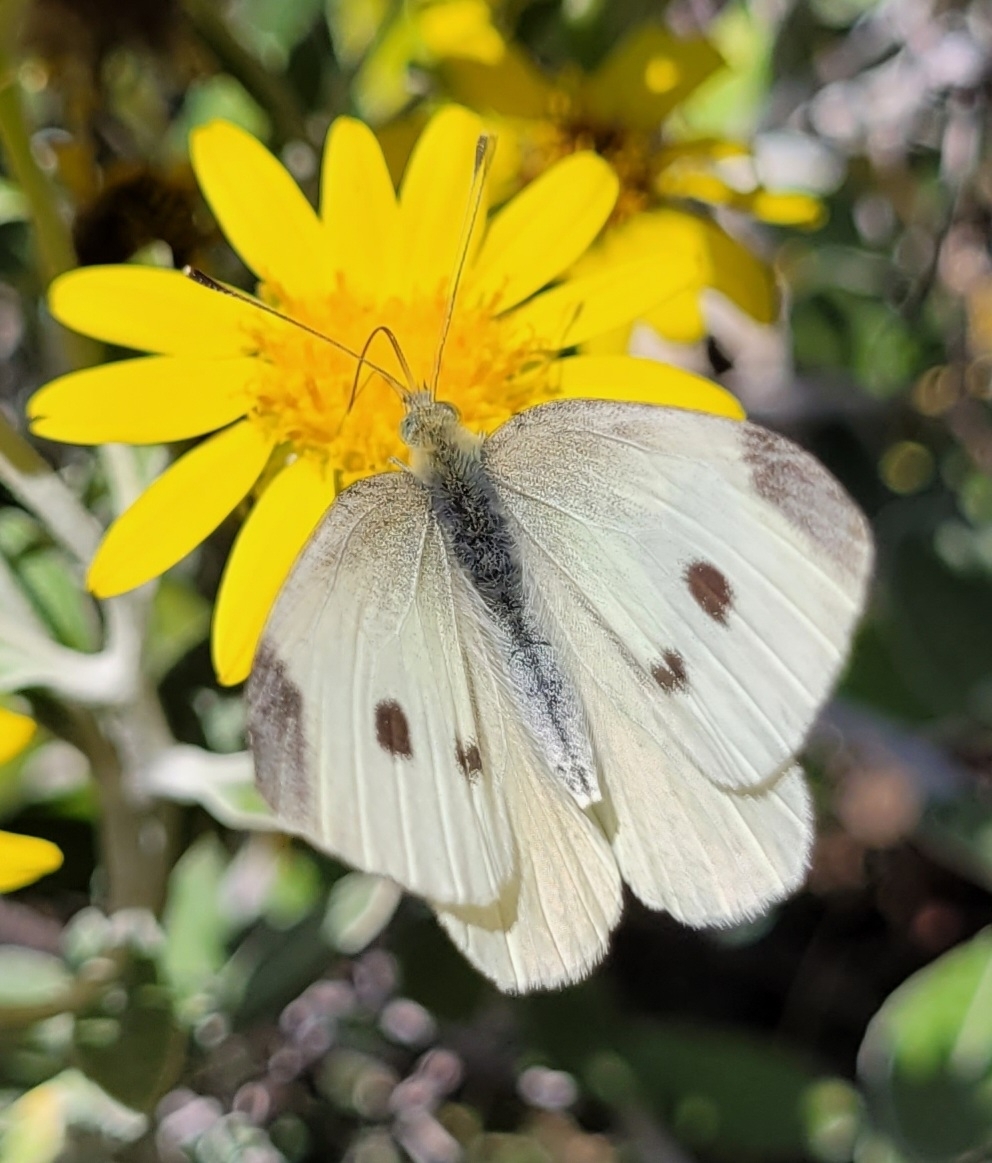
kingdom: Animalia
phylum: Arthropoda
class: Insecta
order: Lepidoptera
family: Pieridae
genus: Pieris
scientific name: Pieris rapae
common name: Small white
